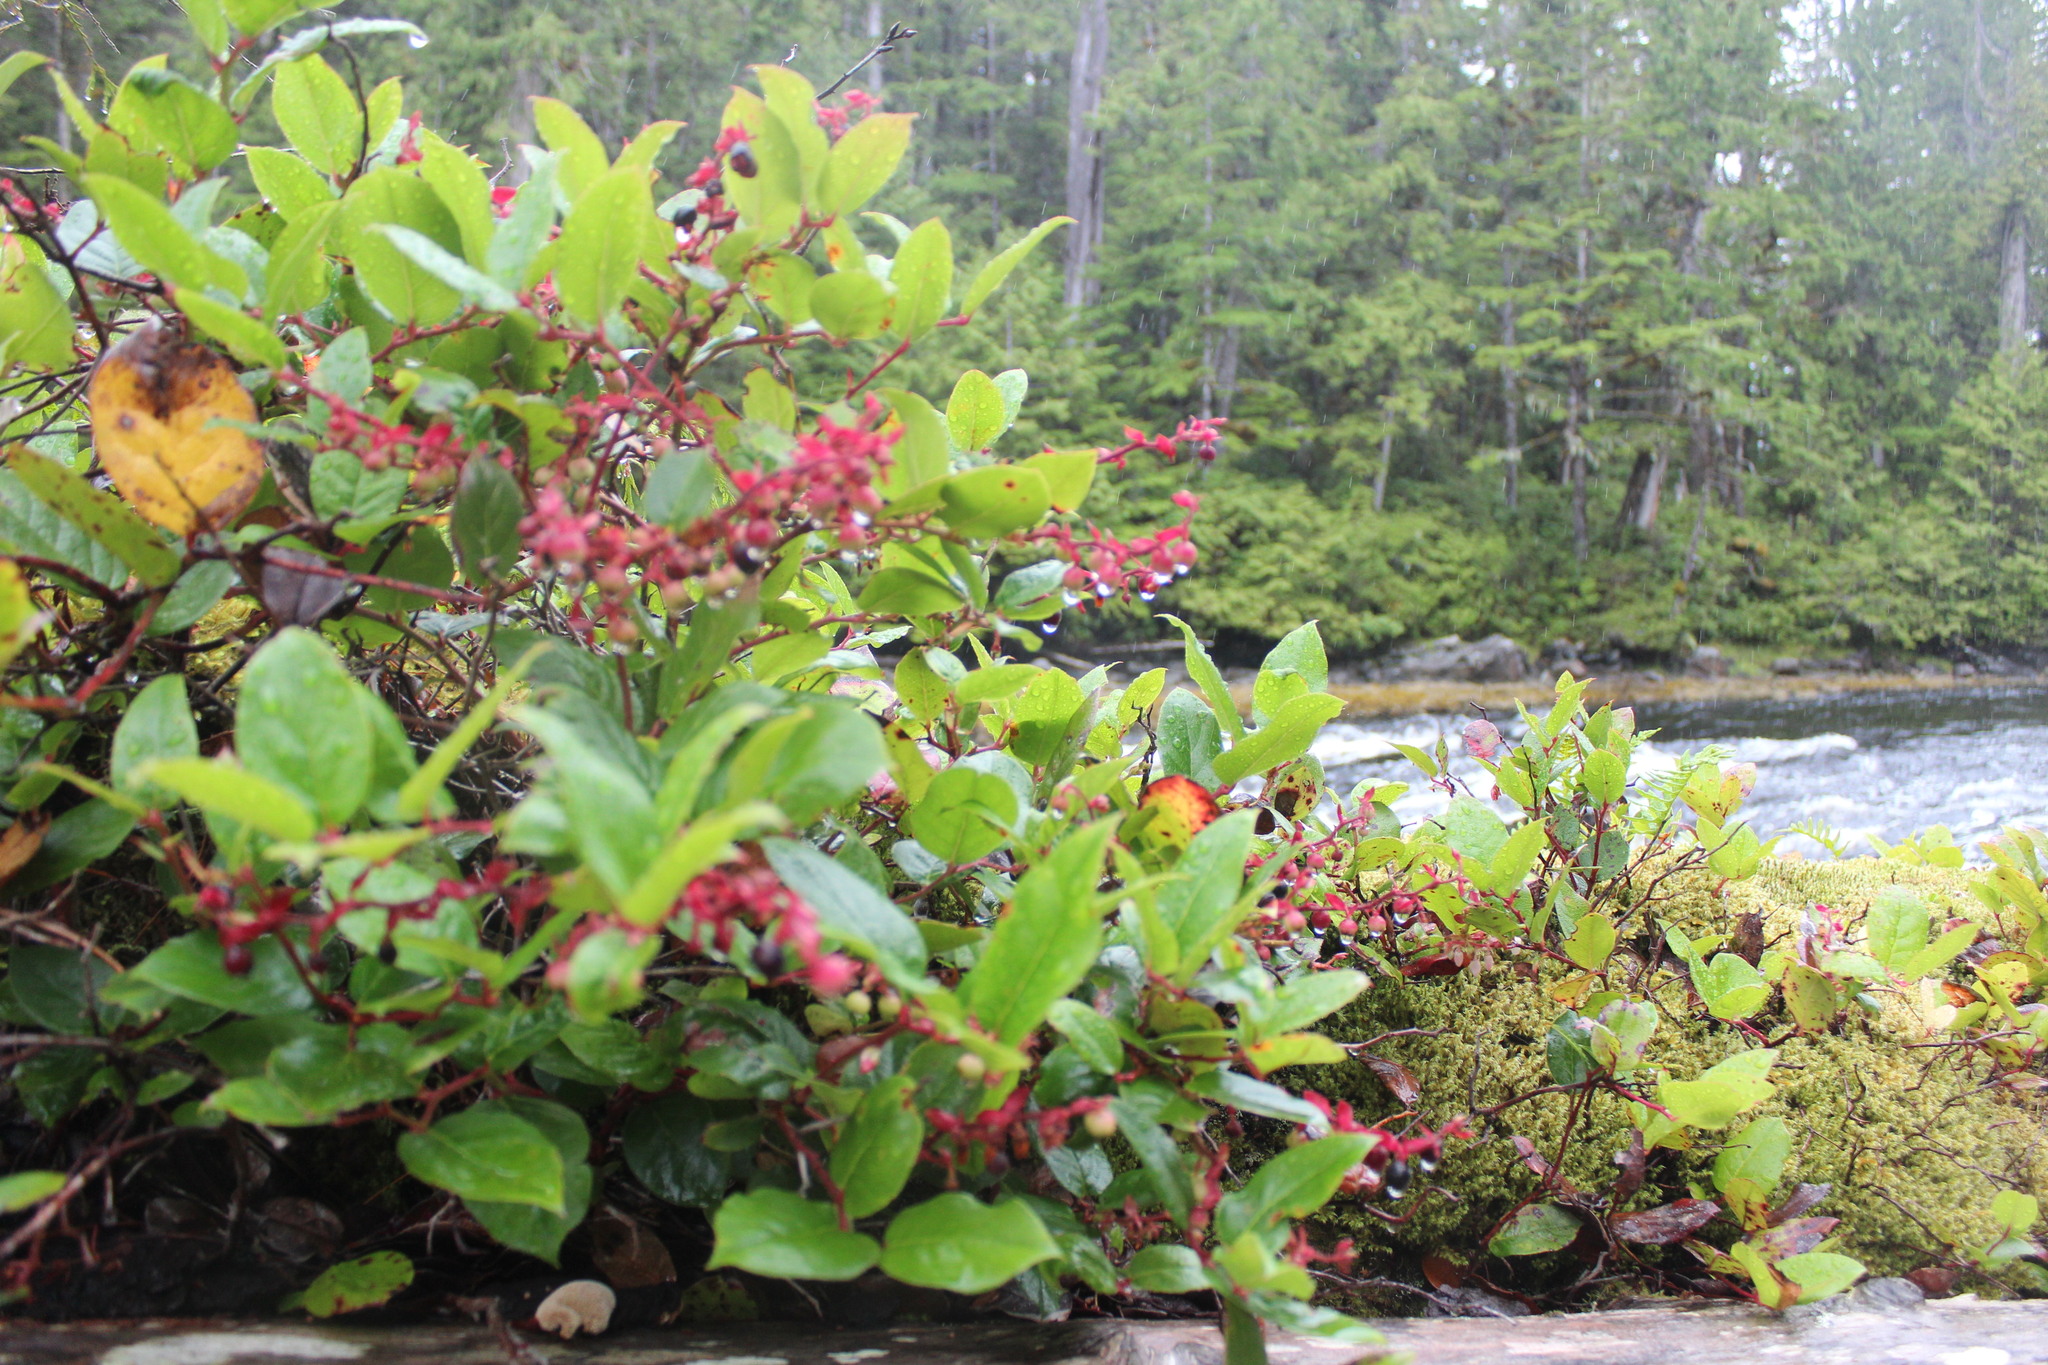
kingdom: Plantae
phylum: Tracheophyta
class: Magnoliopsida
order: Ericales
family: Ericaceae
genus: Gaultheria
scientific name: Gaultheria shallon
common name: Shallon
